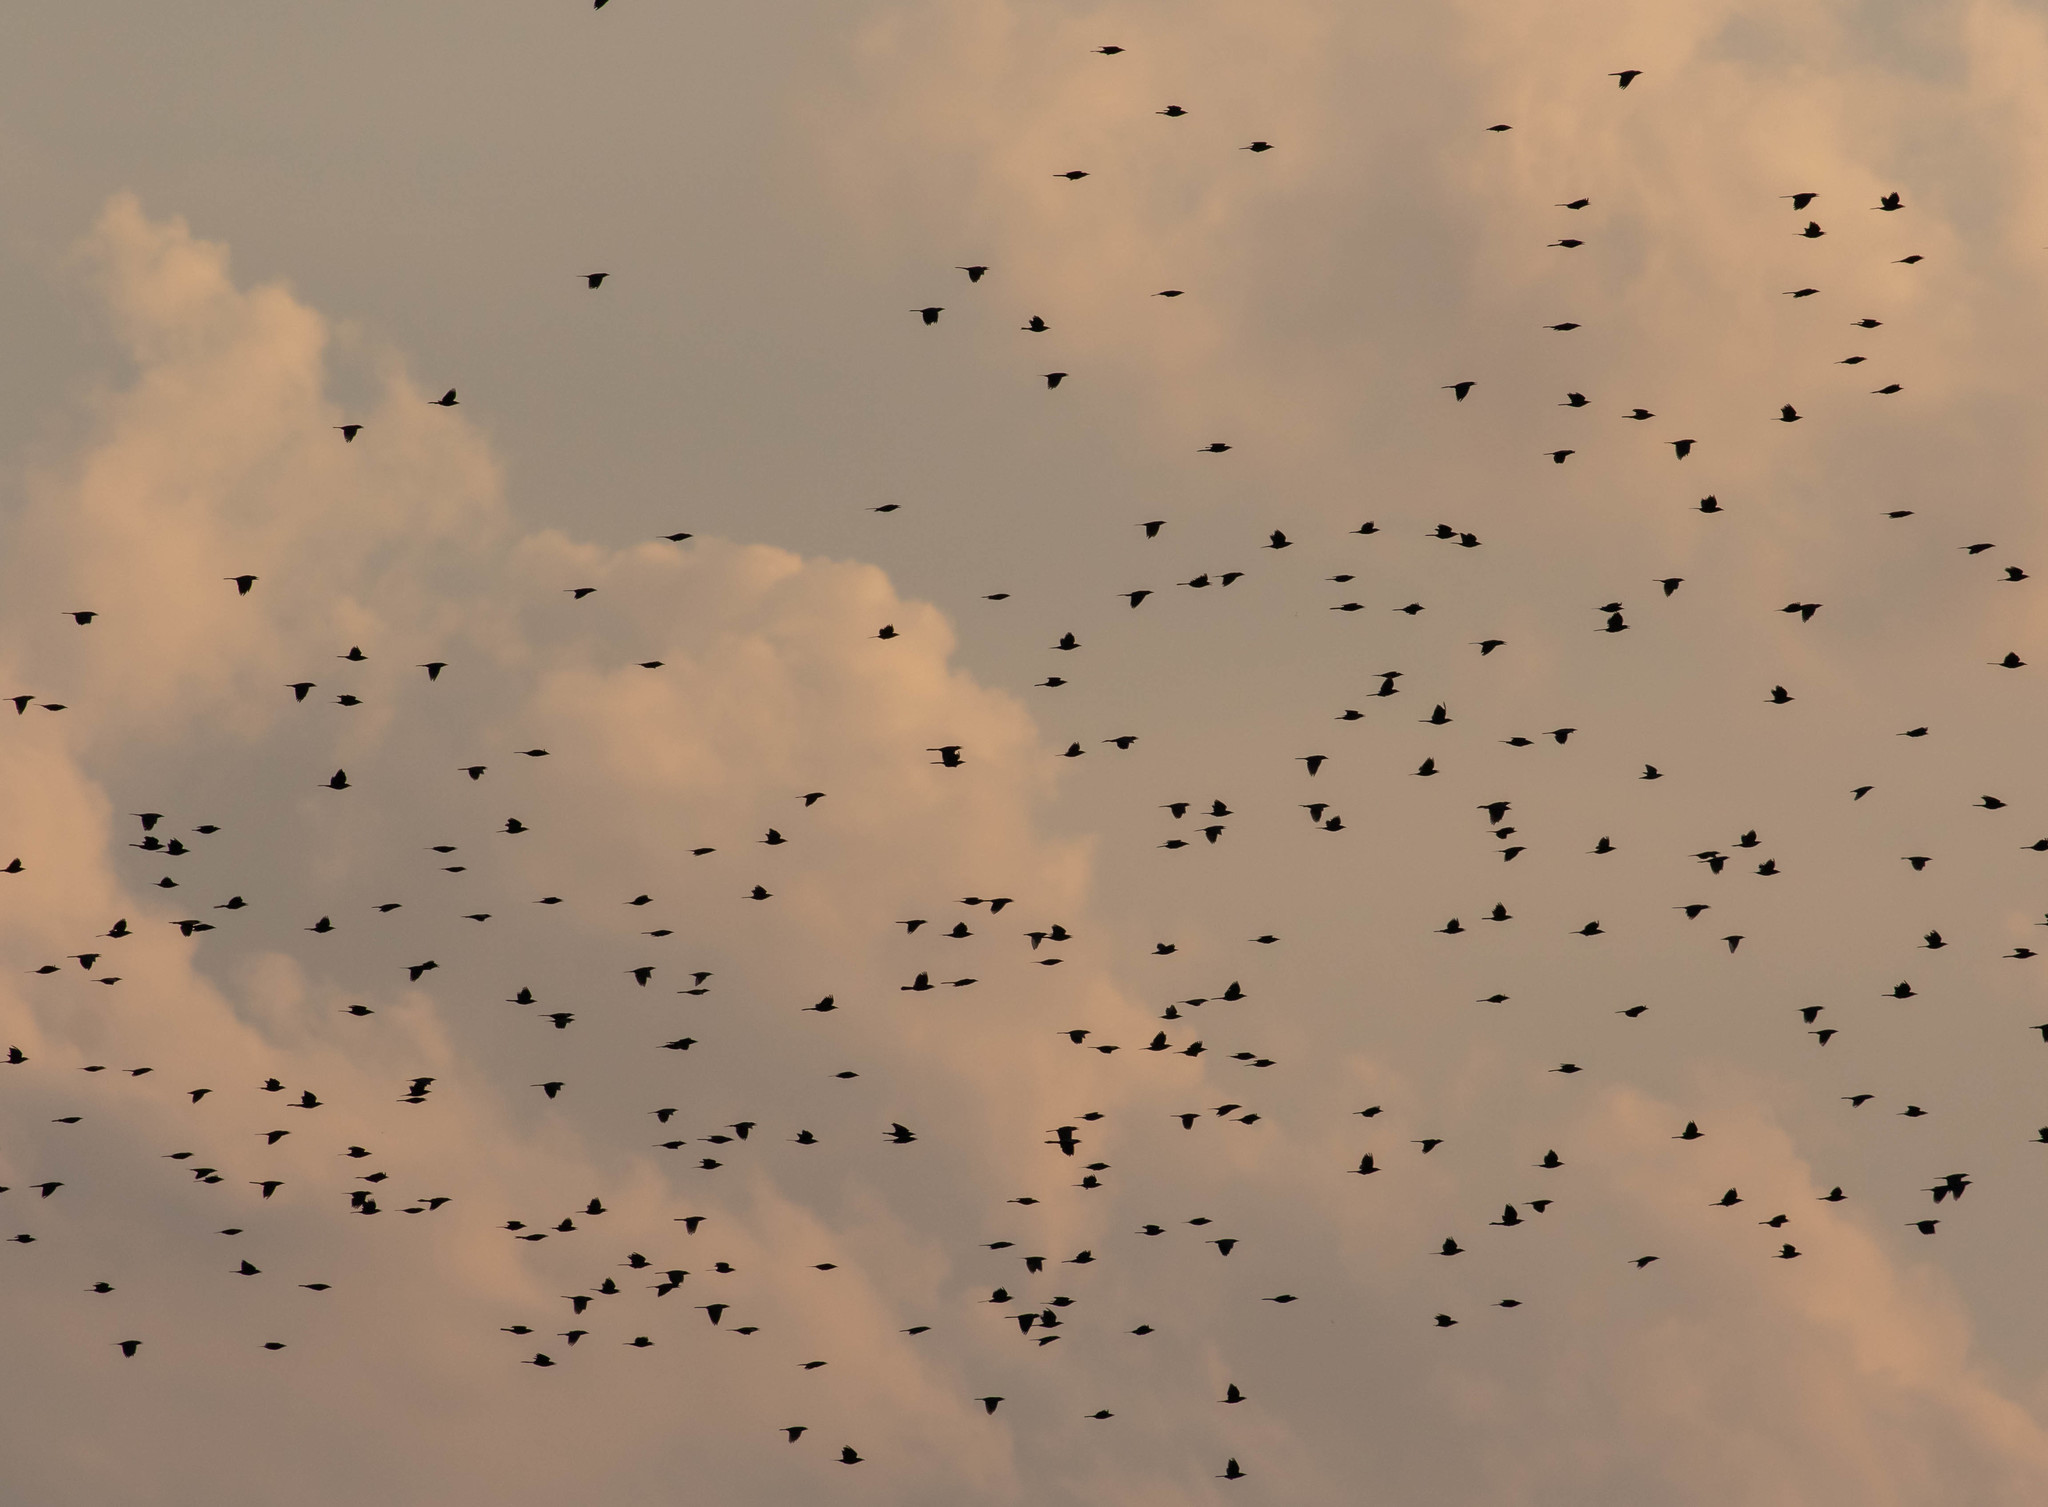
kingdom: Animalia
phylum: Chordata
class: Aves
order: Passeriformes
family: Icteridae
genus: Quiscalus
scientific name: Quiscalus quiscula
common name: Common grackle
